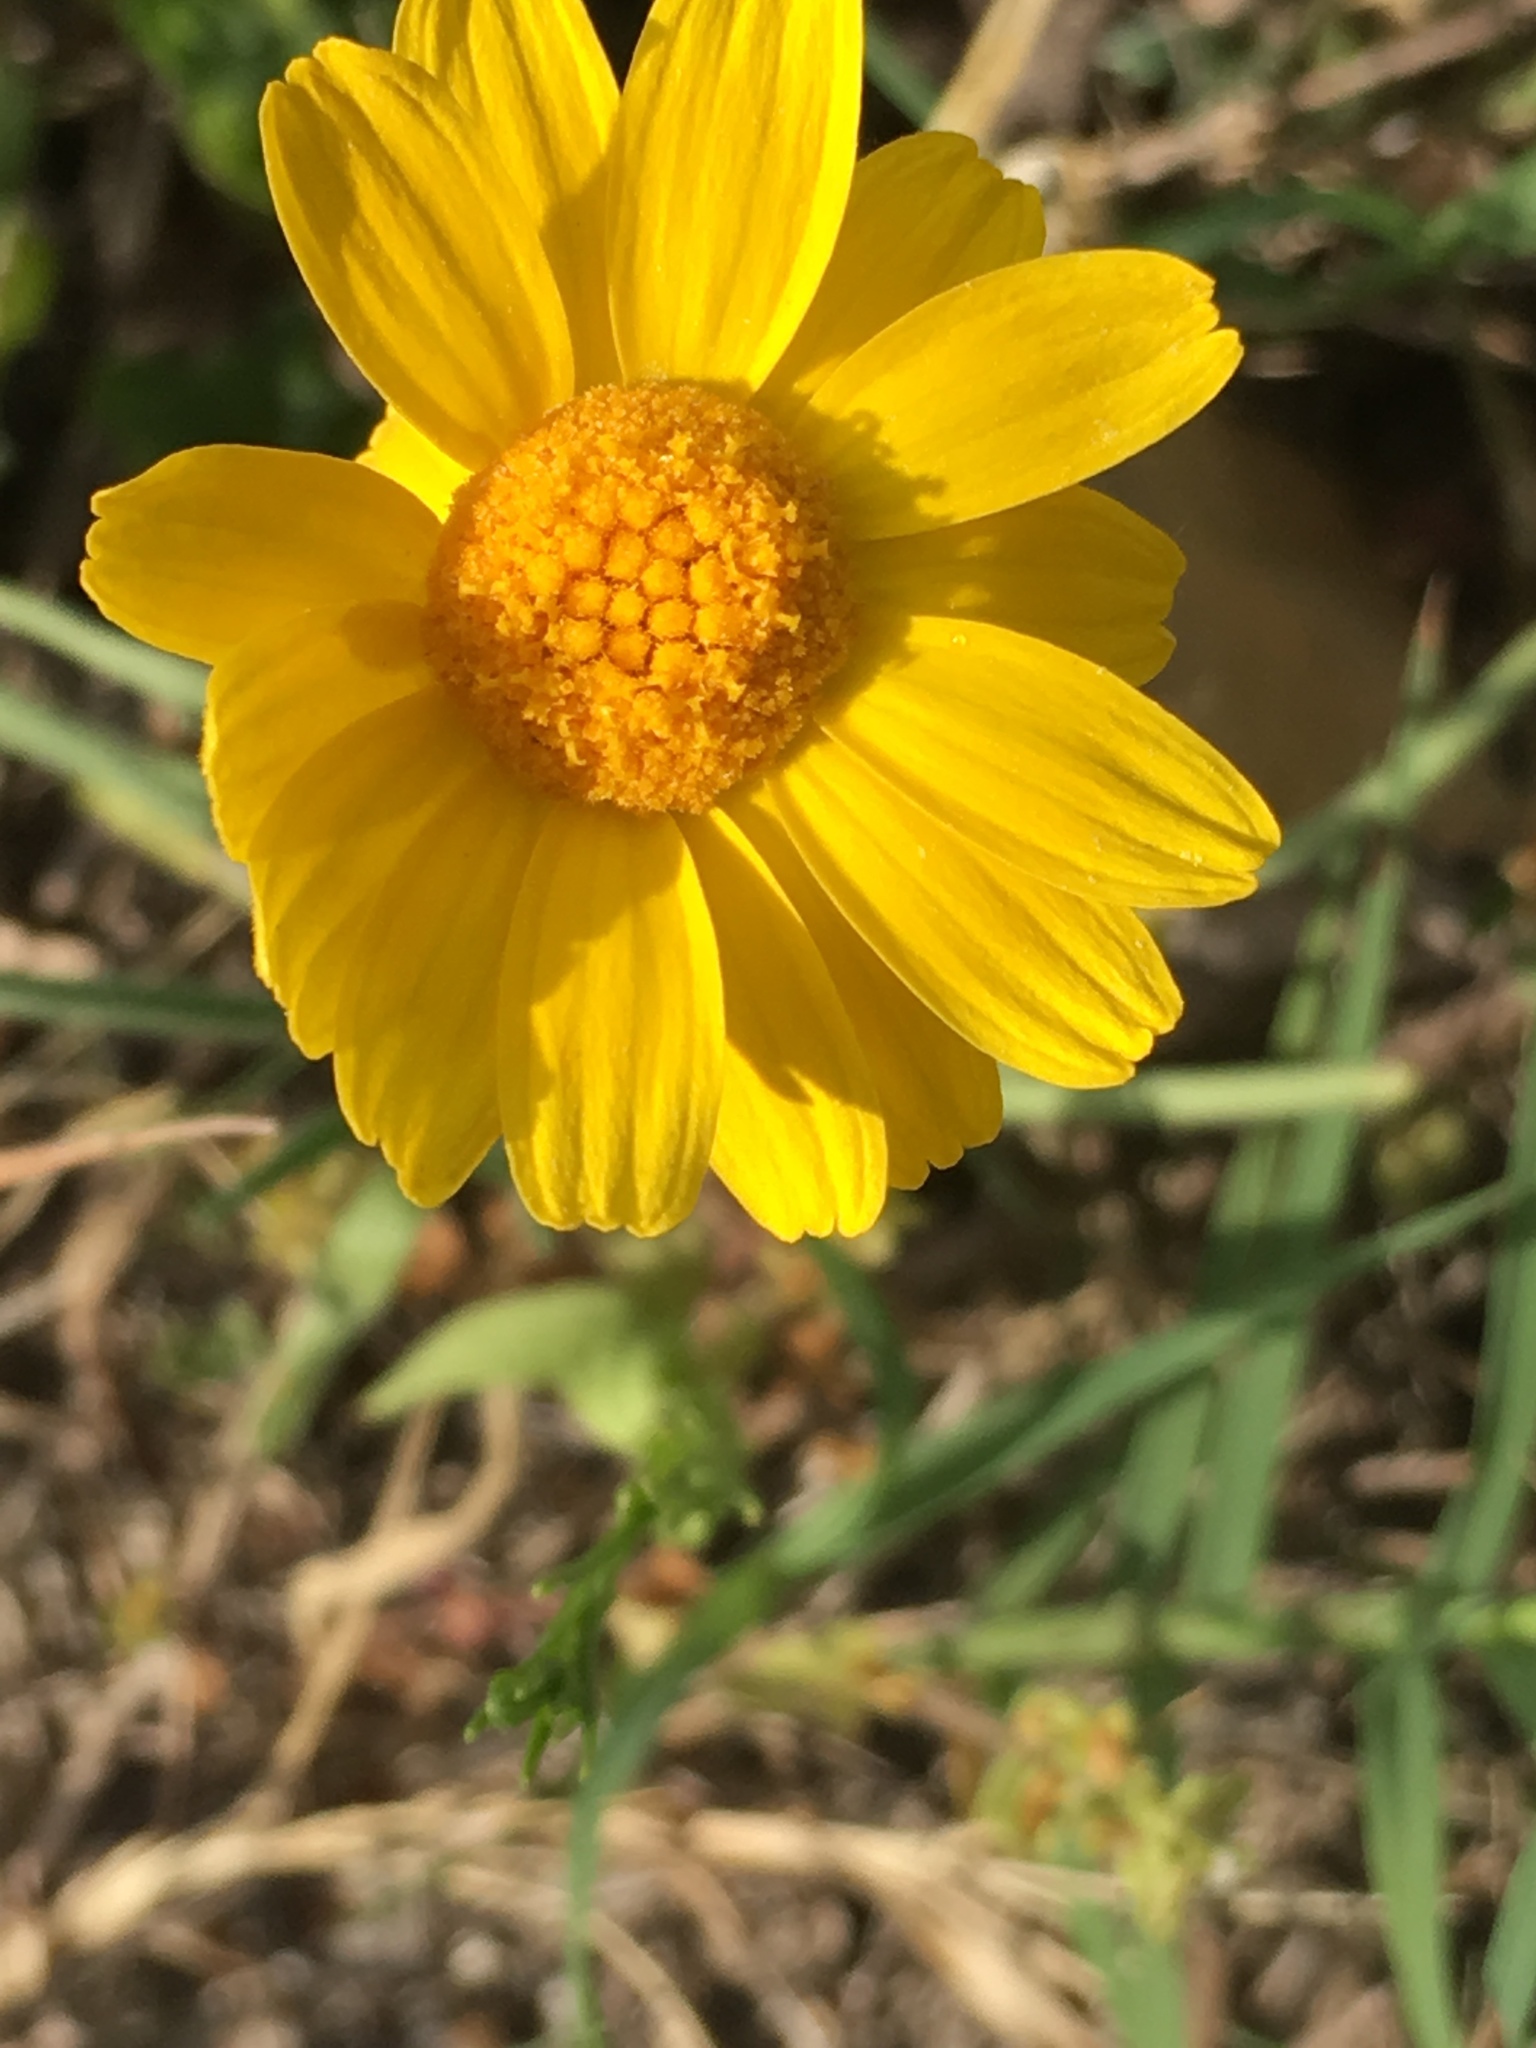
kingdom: Plantae
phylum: Tracheophyta
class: Magnoliopsida
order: Asterales
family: Asteraceae
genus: Tetraneuris
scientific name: Tetraneuris scaposa
